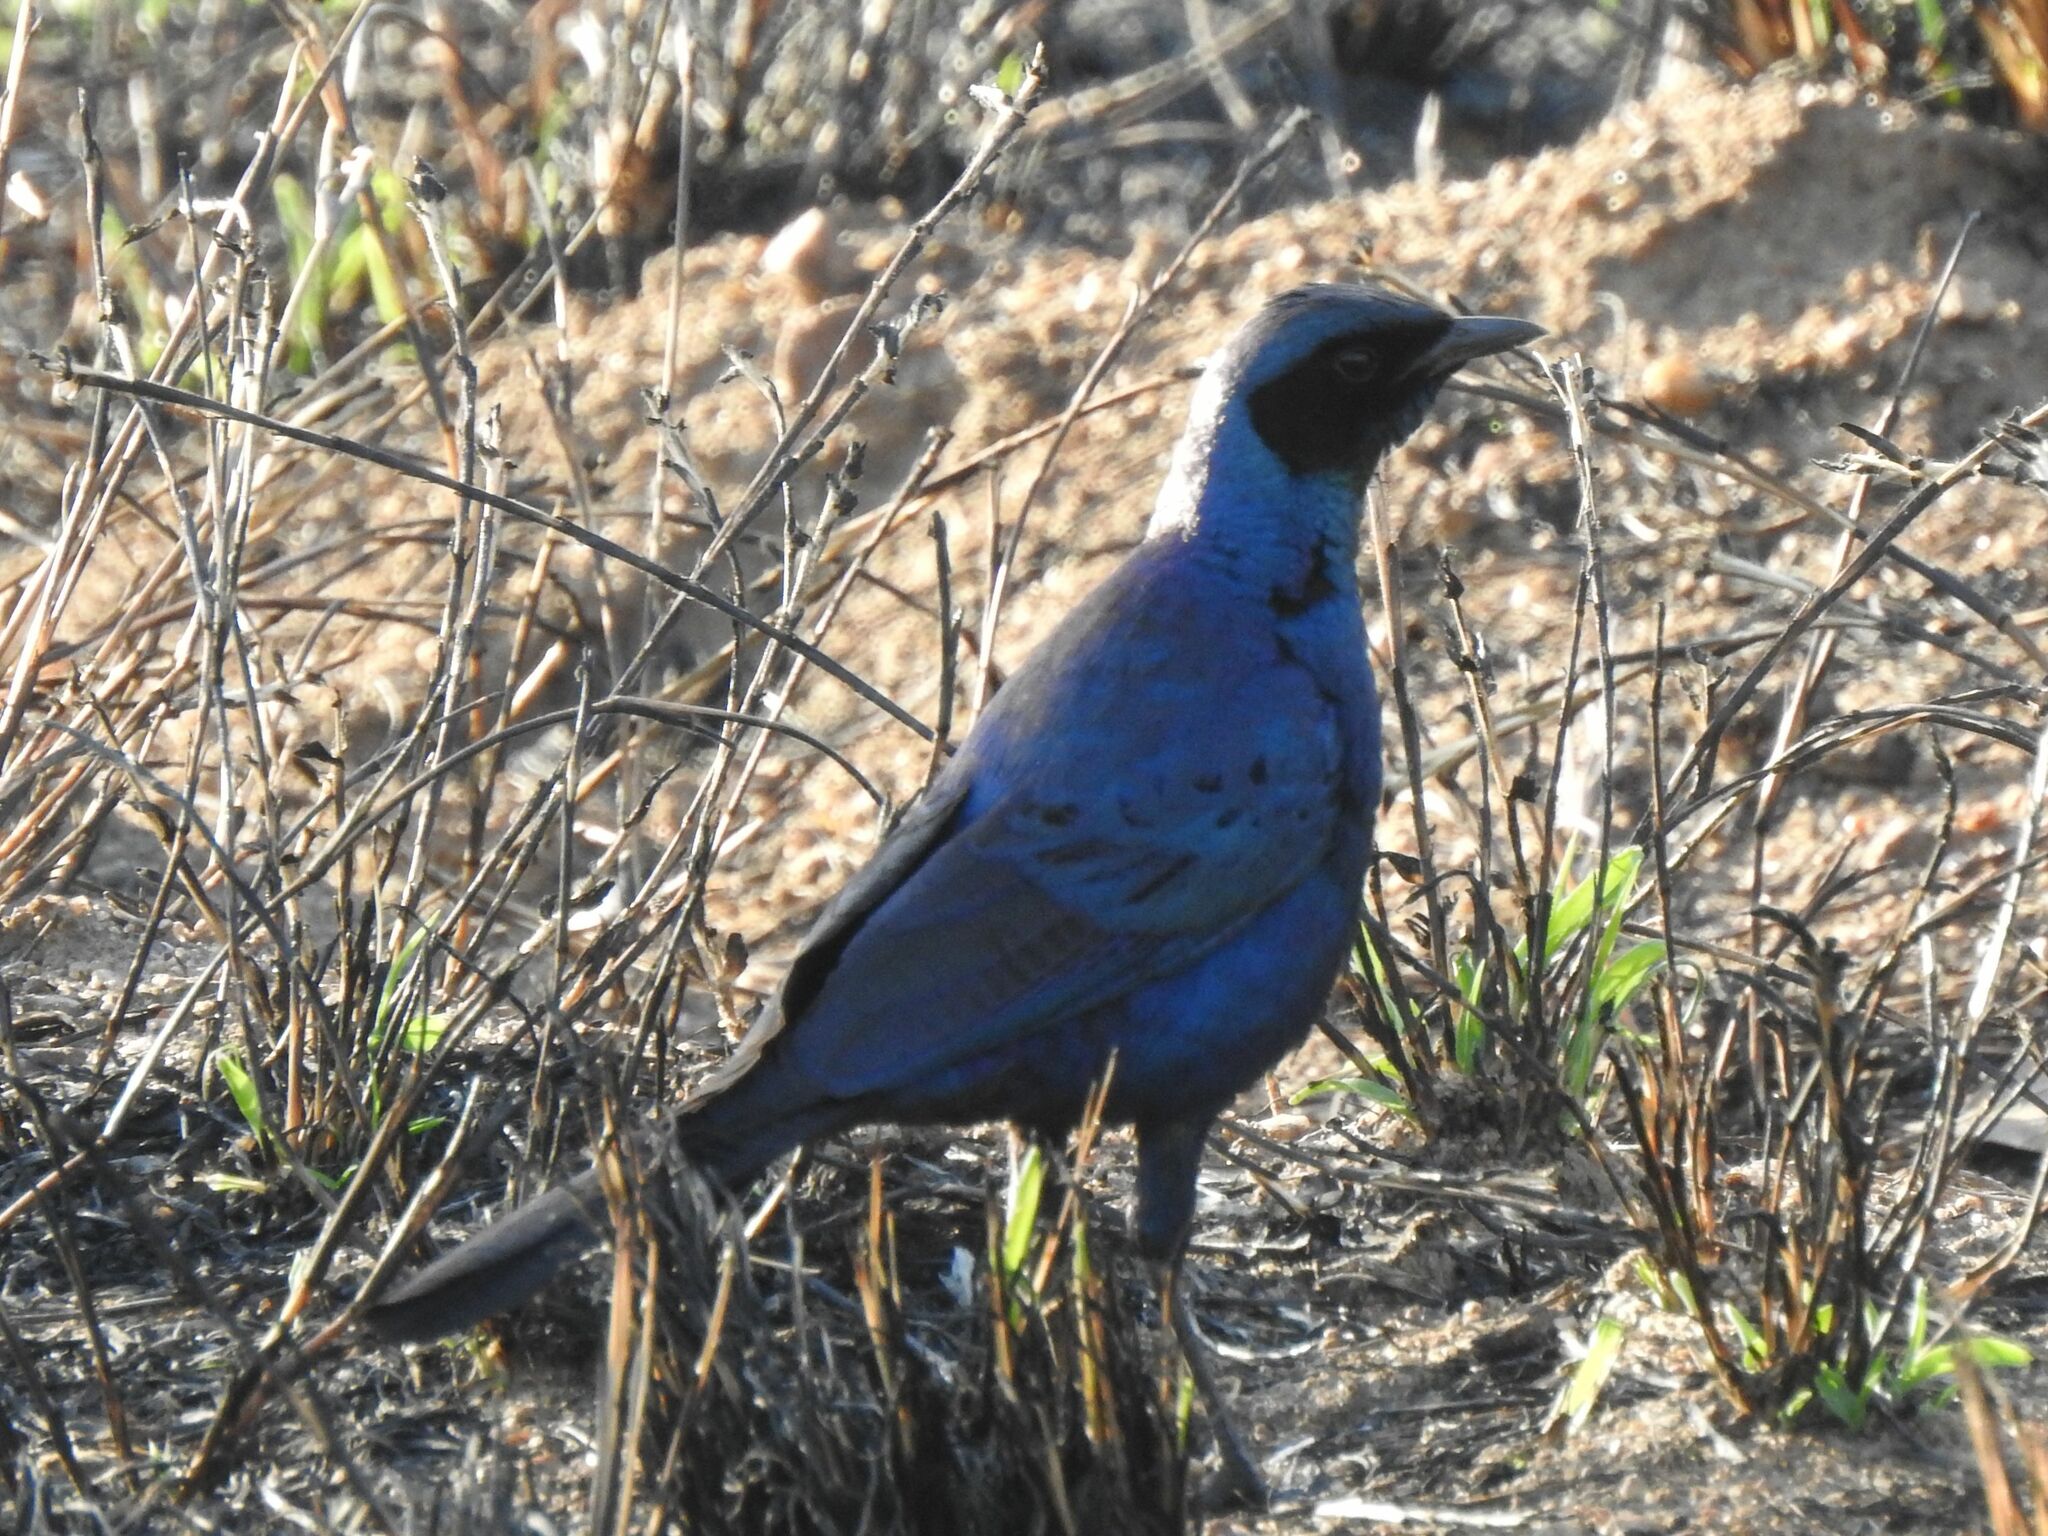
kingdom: Animalia
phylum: Chordata
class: Aves
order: Passeriformes
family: Sturnidae
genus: Lamprotornis
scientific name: Lamprotornis australis
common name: Burchell's starling
